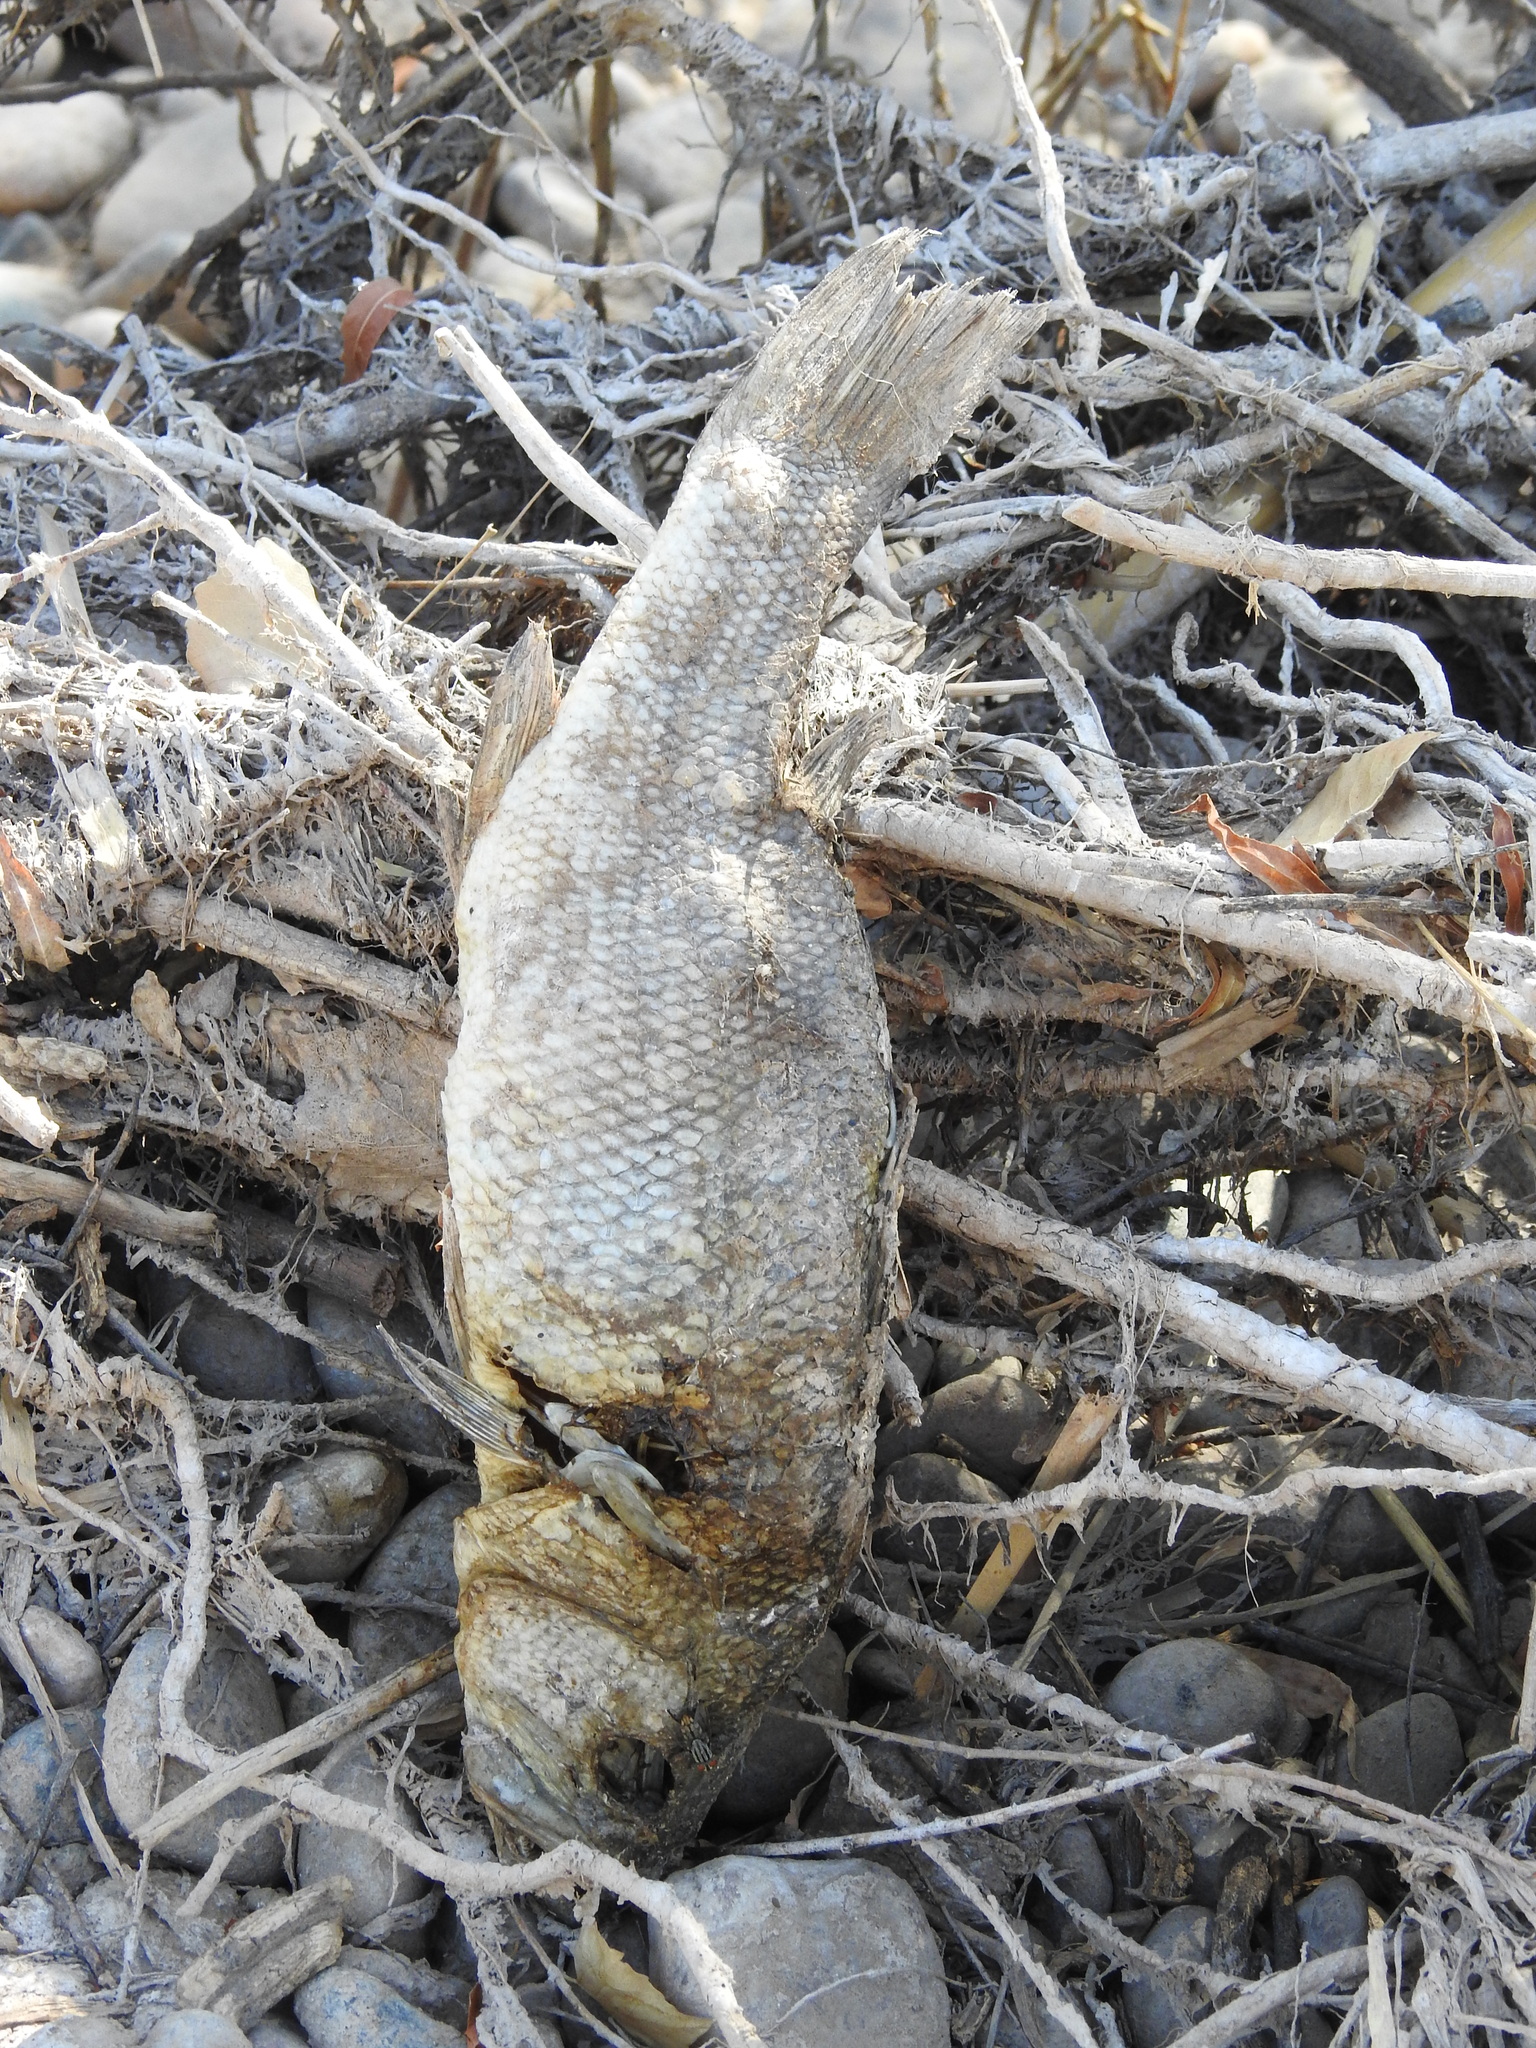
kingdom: Animalia
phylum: Chordata
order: Perciformes
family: Centrarchidae
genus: Micropterus
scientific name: Micropterus
